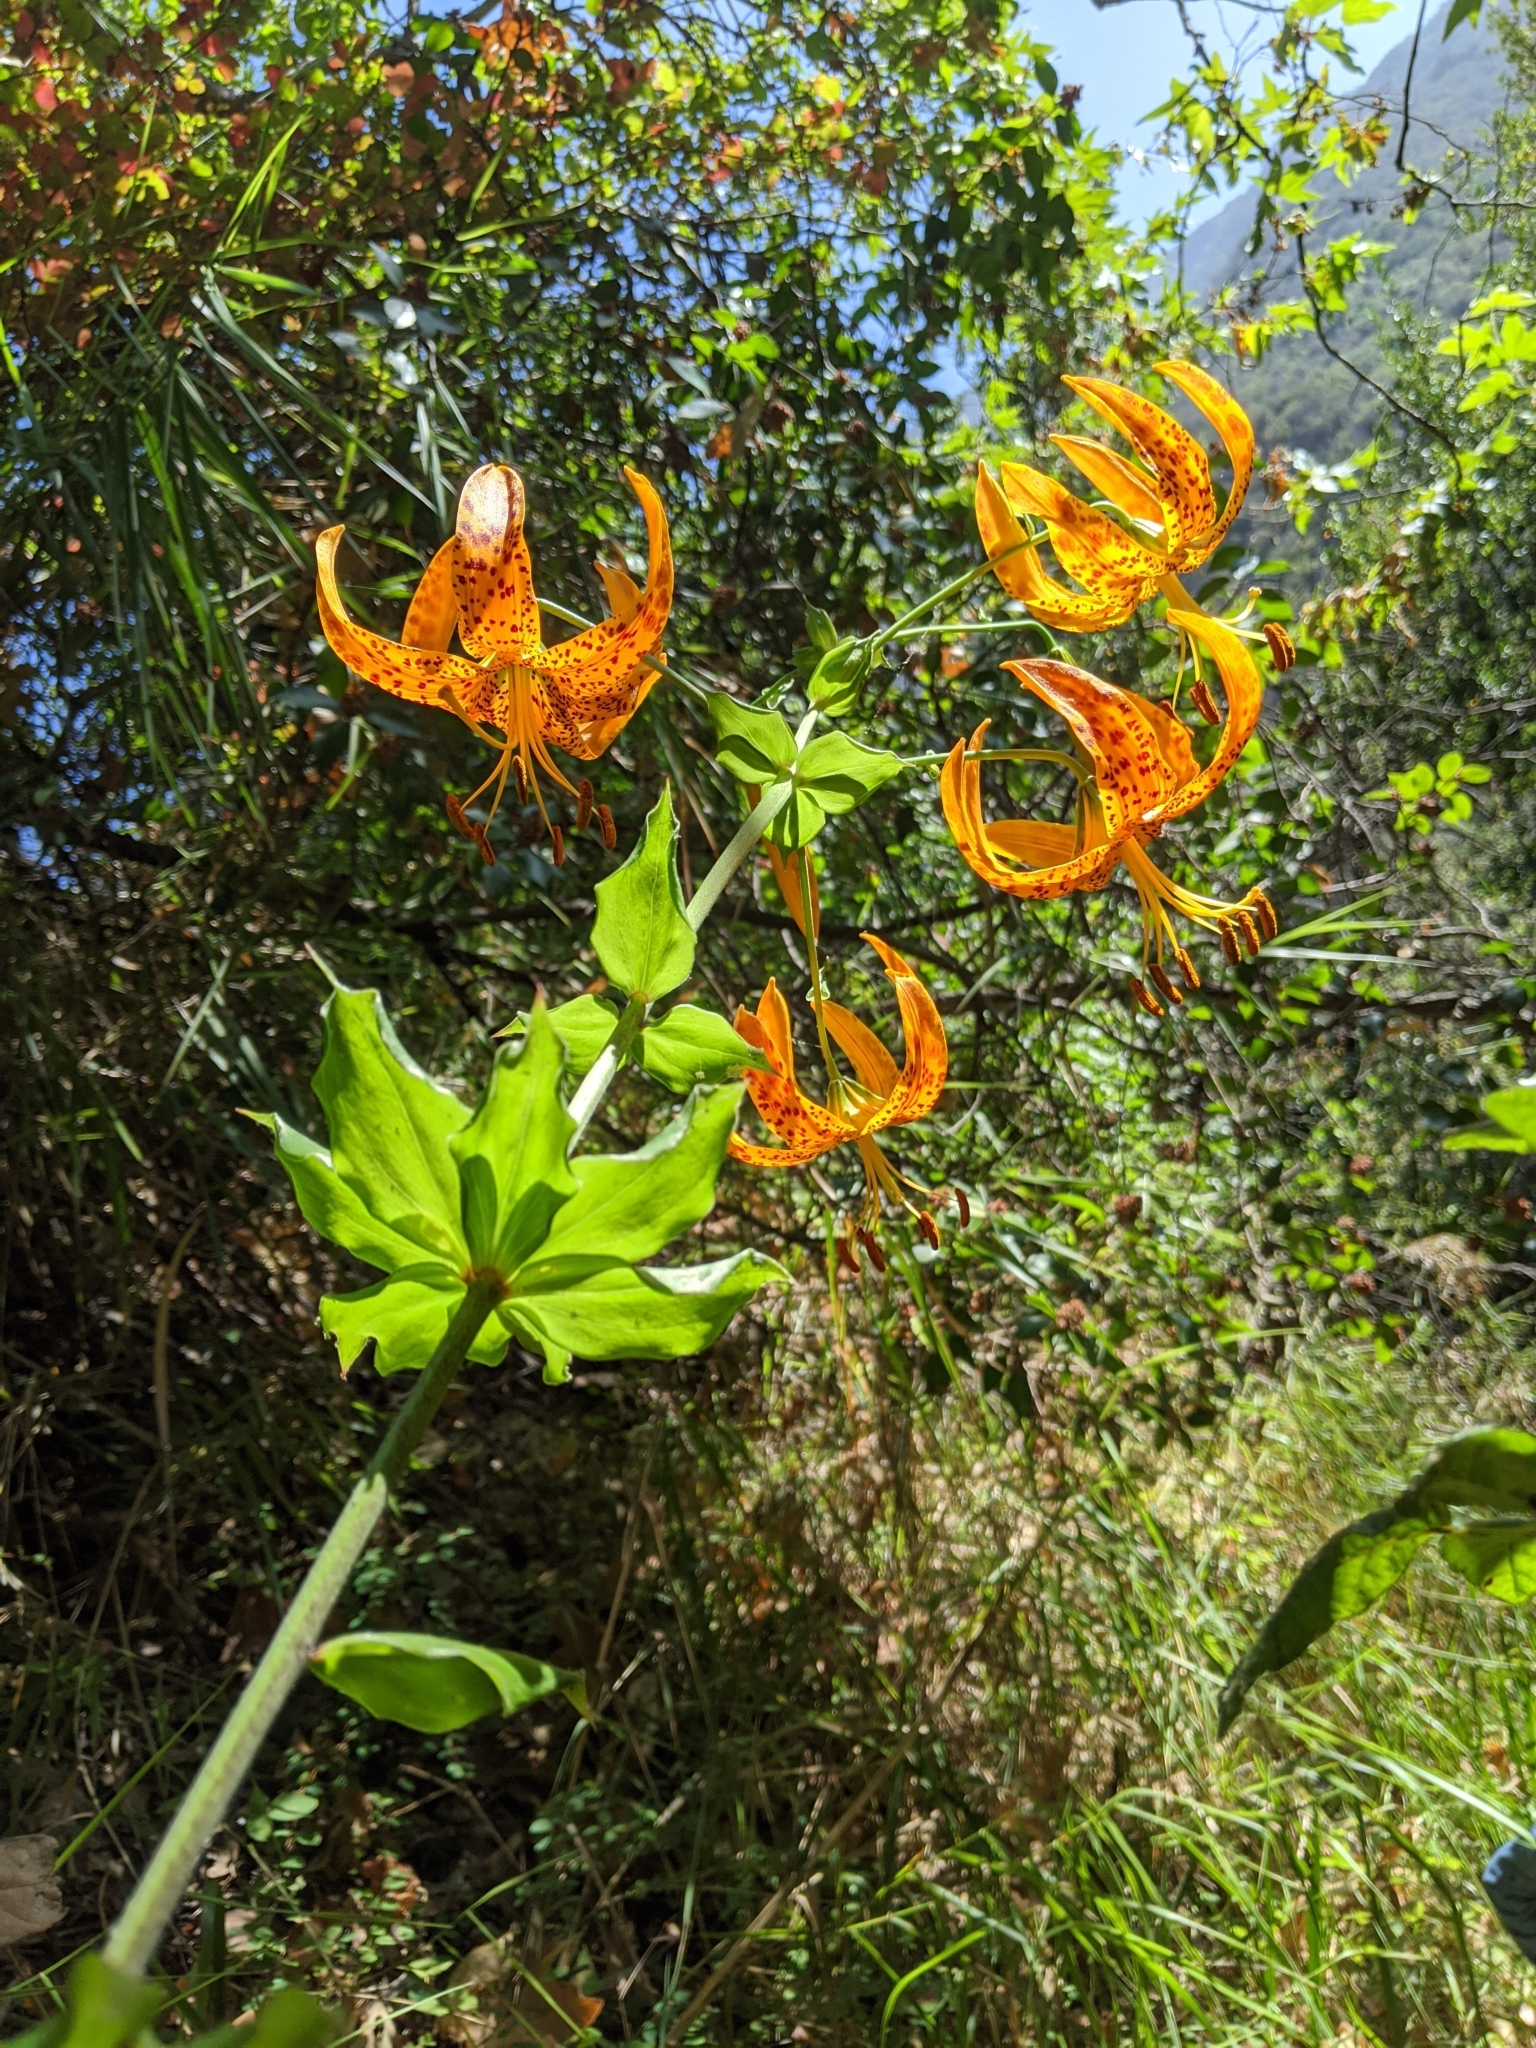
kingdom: Plantae
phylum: Tracheophyta
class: Liliopsida
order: Liliales
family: Liliaceae
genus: Lilium
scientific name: Lilium humboldtii
